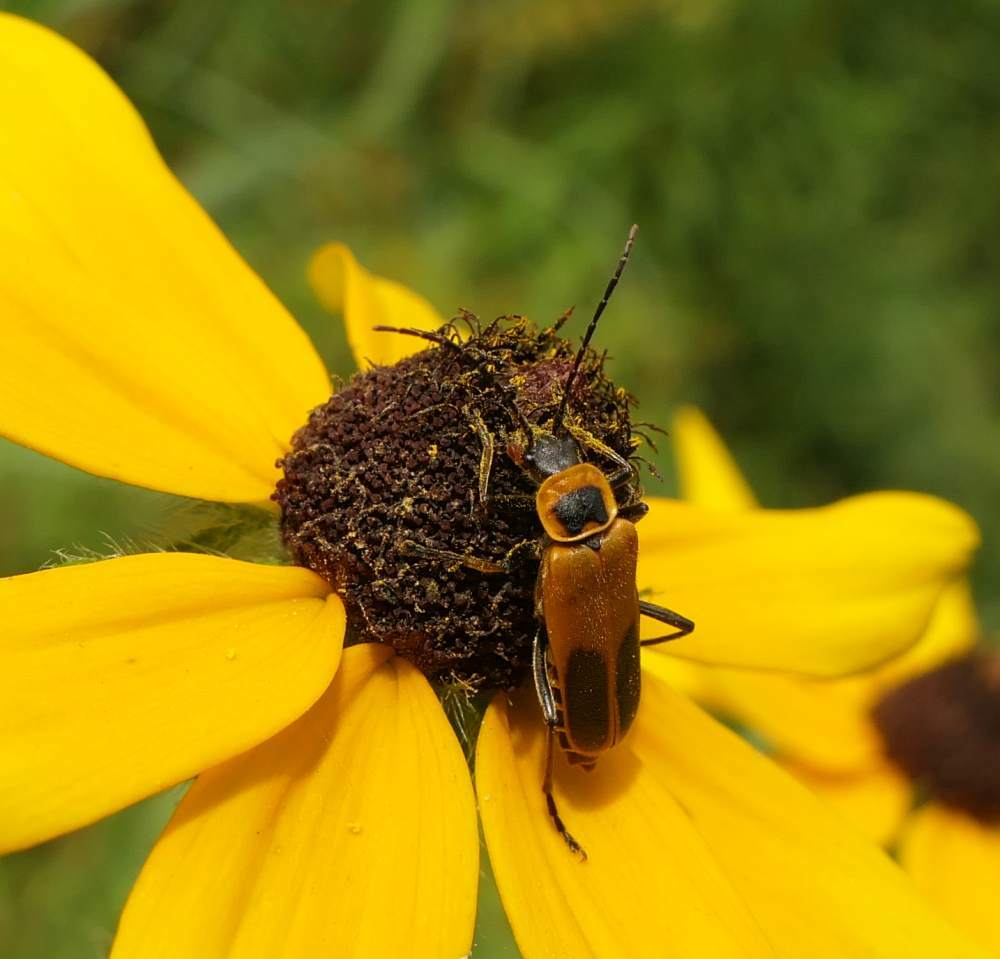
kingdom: Animalia
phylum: Arthropoda
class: Insecta
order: Coleoptera
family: Cantharidae
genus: Chauliognathus
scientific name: Chauliognathus pensylvanicus
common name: Goldenrod soldier beetle
